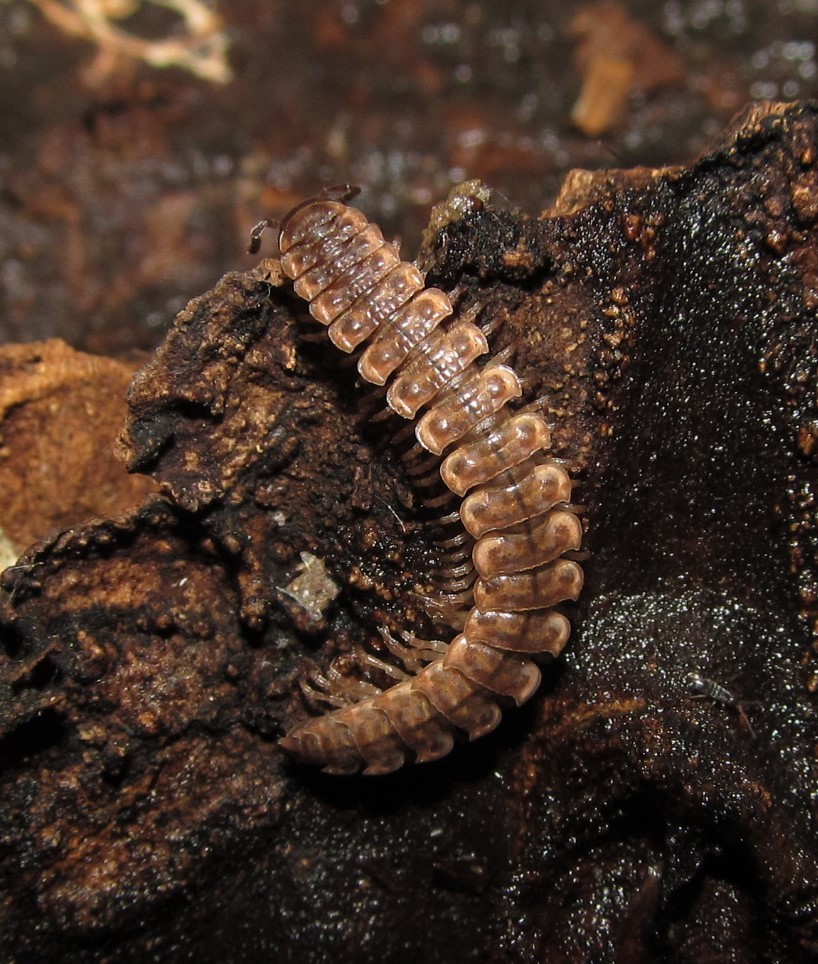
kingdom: Animalia
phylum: Arthropoda
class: Diplopoda
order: Polydesmida
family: Polydesmidae
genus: Pseudopolydesmus
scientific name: Pseudopolydesmus collinus
